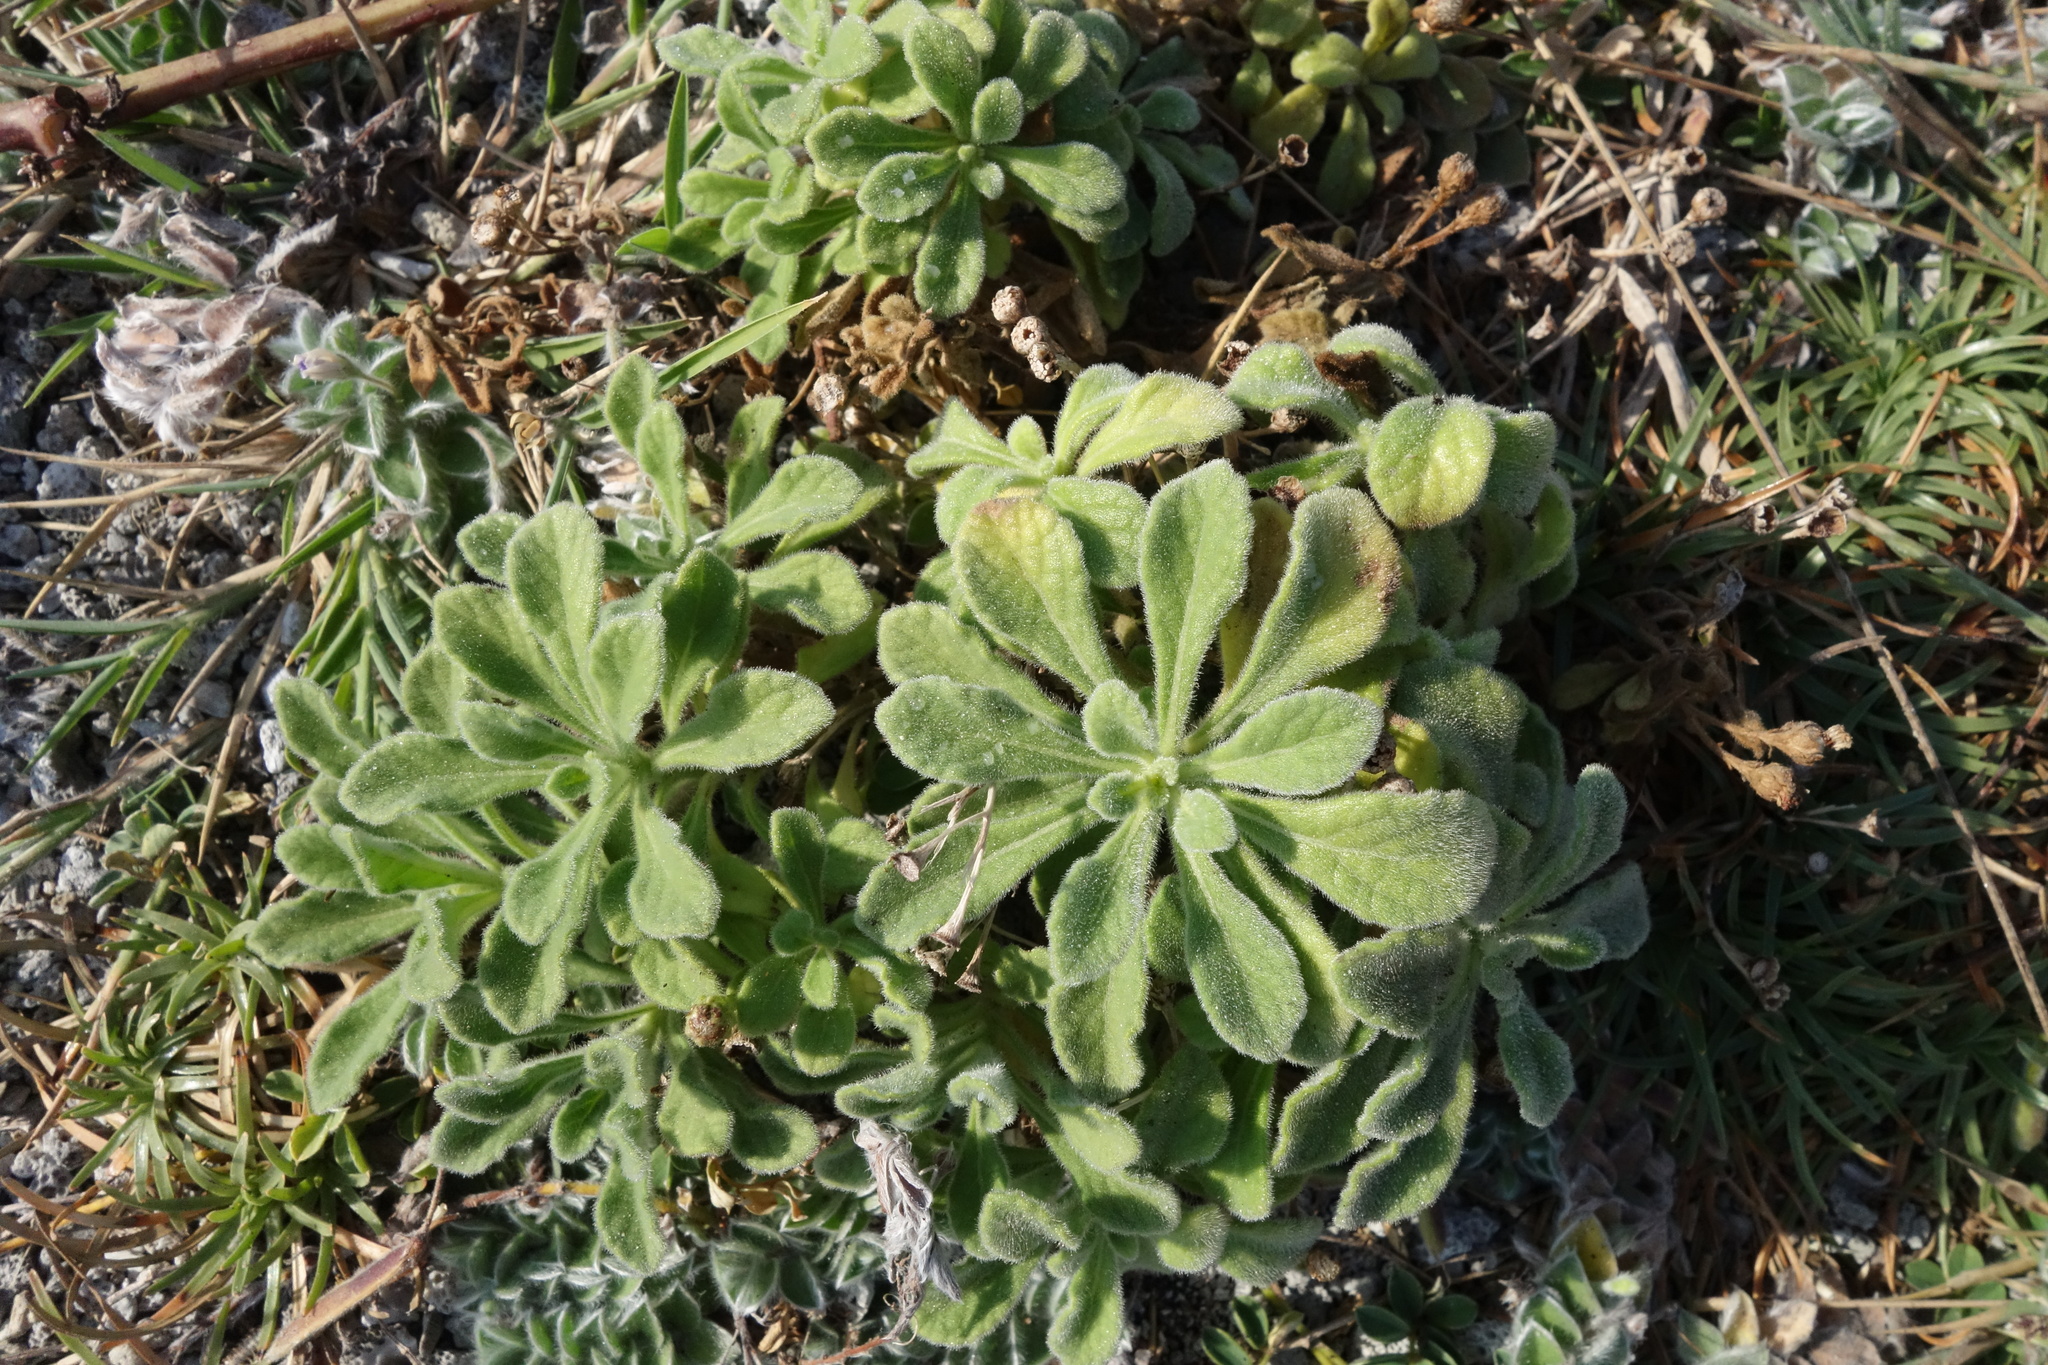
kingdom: Plantae
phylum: Tracheophyta
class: Magnoliopsida
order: Asterales
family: Asteraceae
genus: Cyanthillium
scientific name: Cyanthillium maritimum
